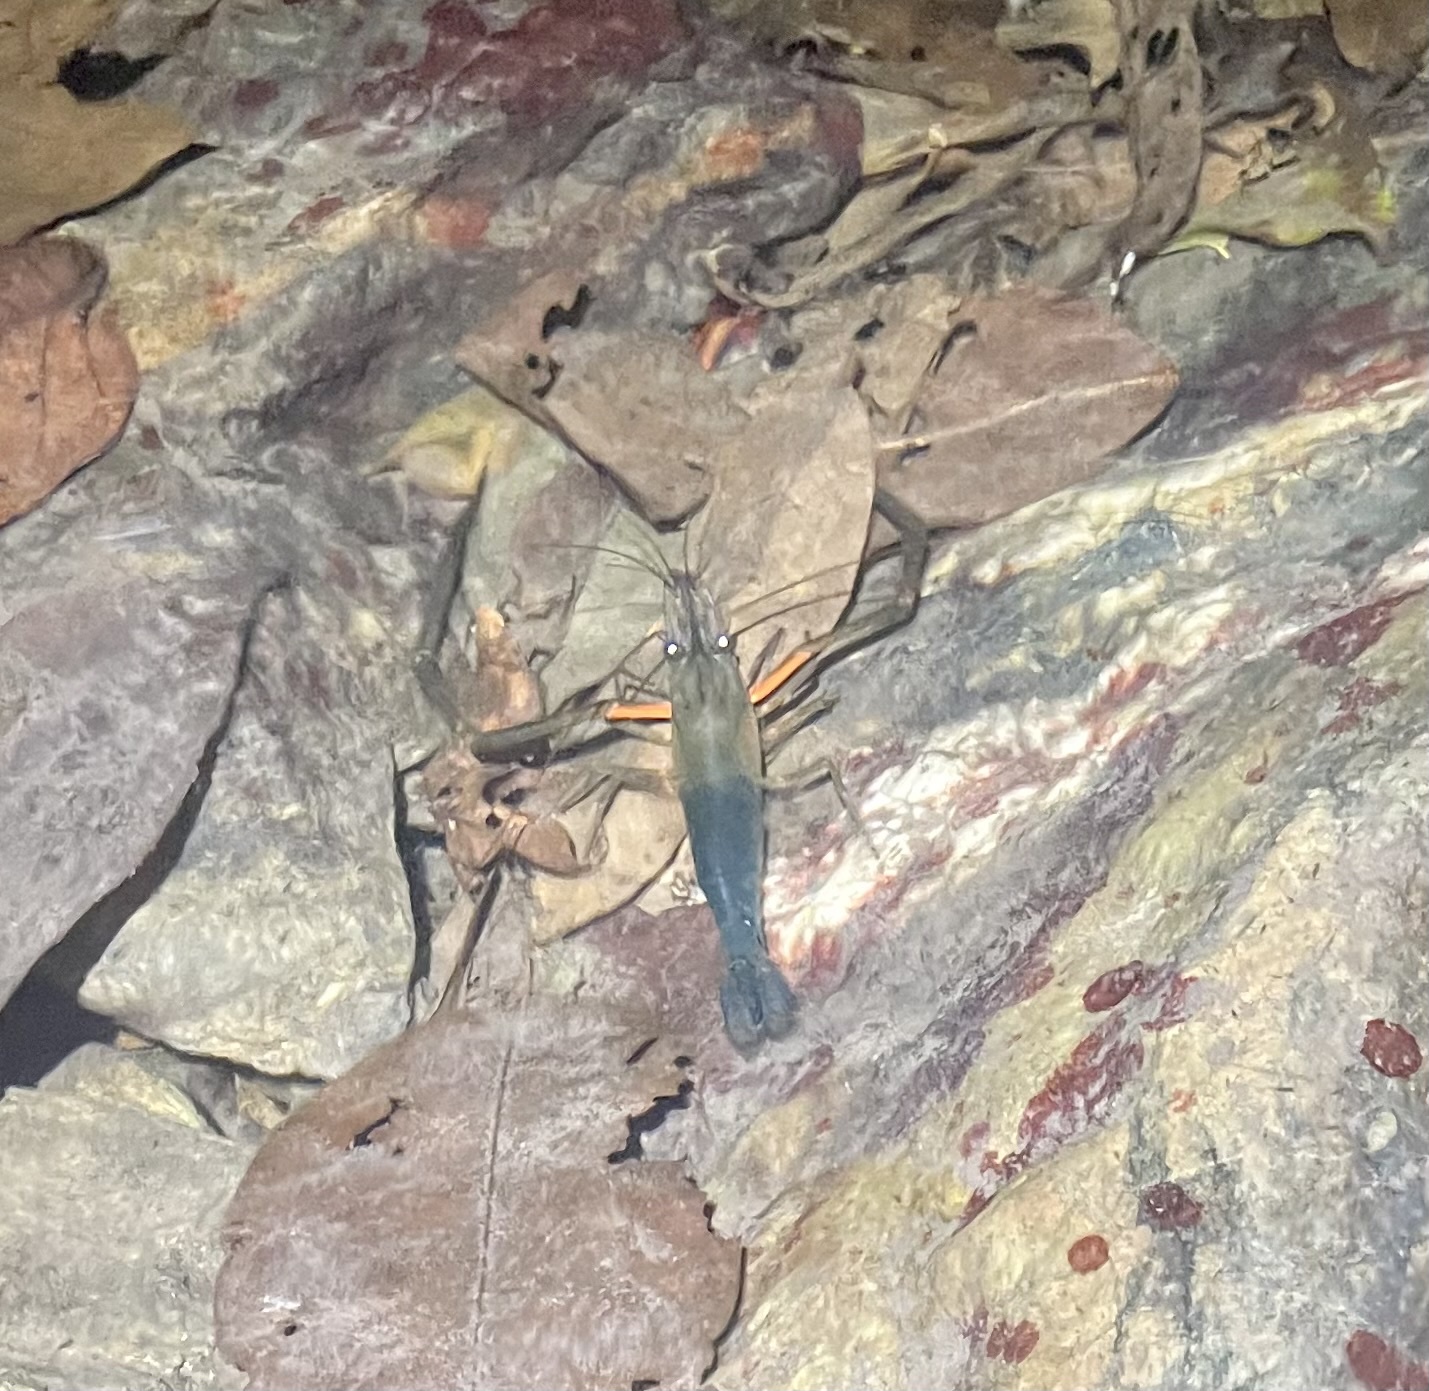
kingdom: Animalia
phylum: Arthropoda
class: Malacostraca
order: Decapoda
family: Palaemonidae
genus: Macrobrachium
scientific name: Macrobrachium tolmerum
